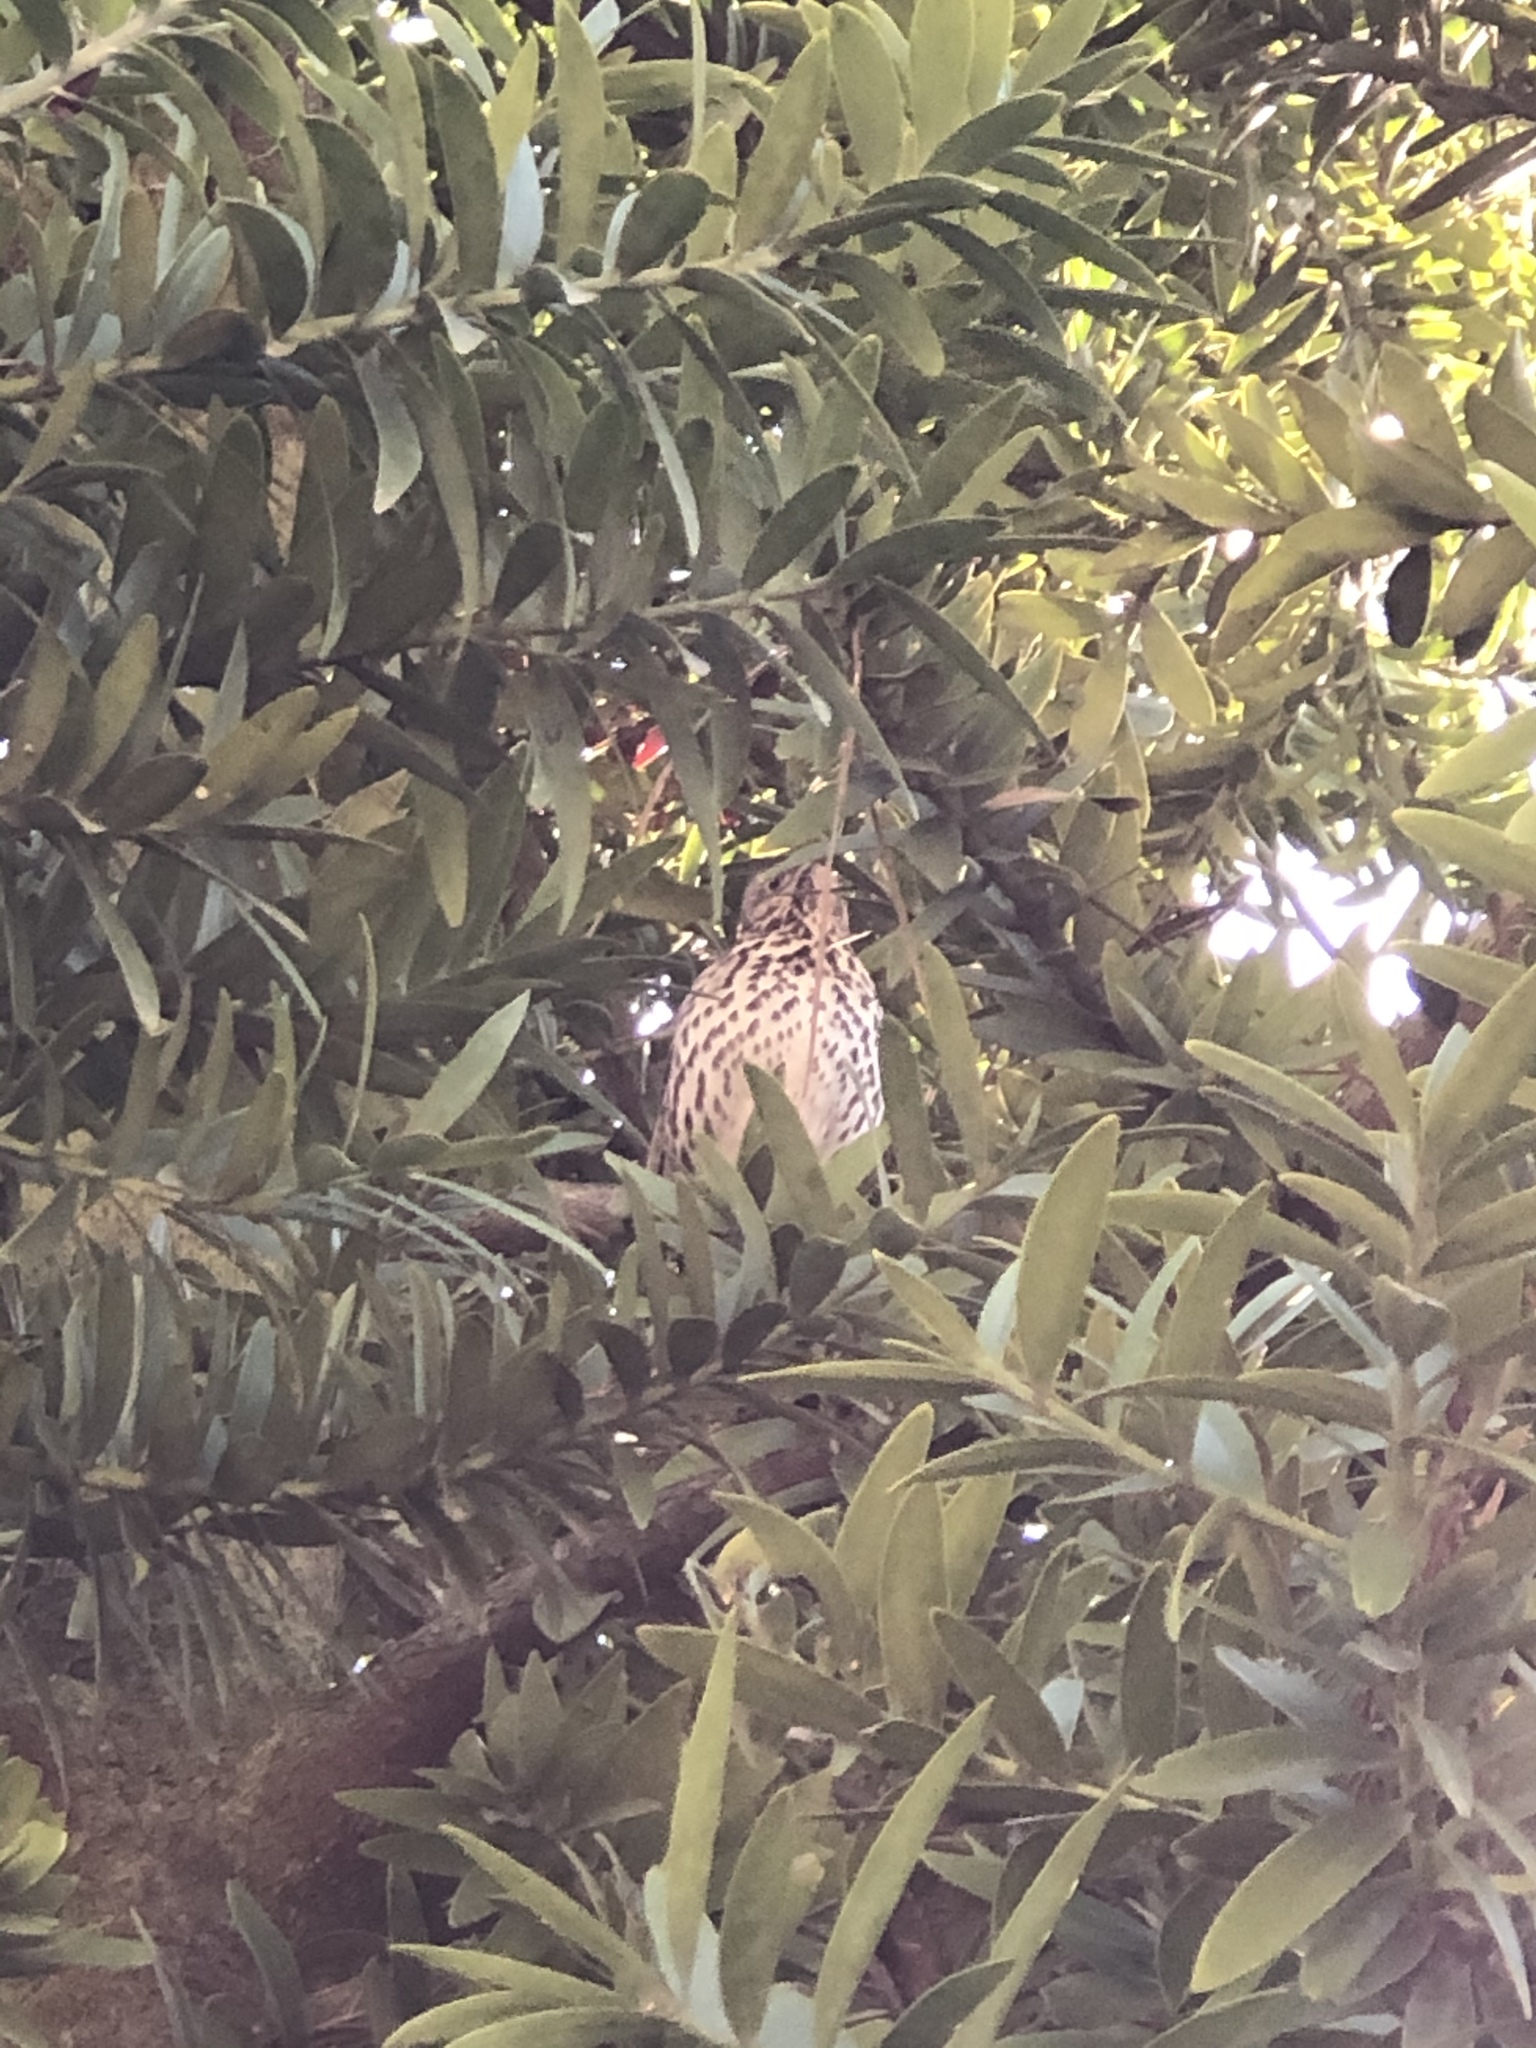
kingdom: Animalia
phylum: Chordata
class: Aves
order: Passeriformes
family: Turdidae
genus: Turdus
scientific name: Turdus philomelos
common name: Song thrush
